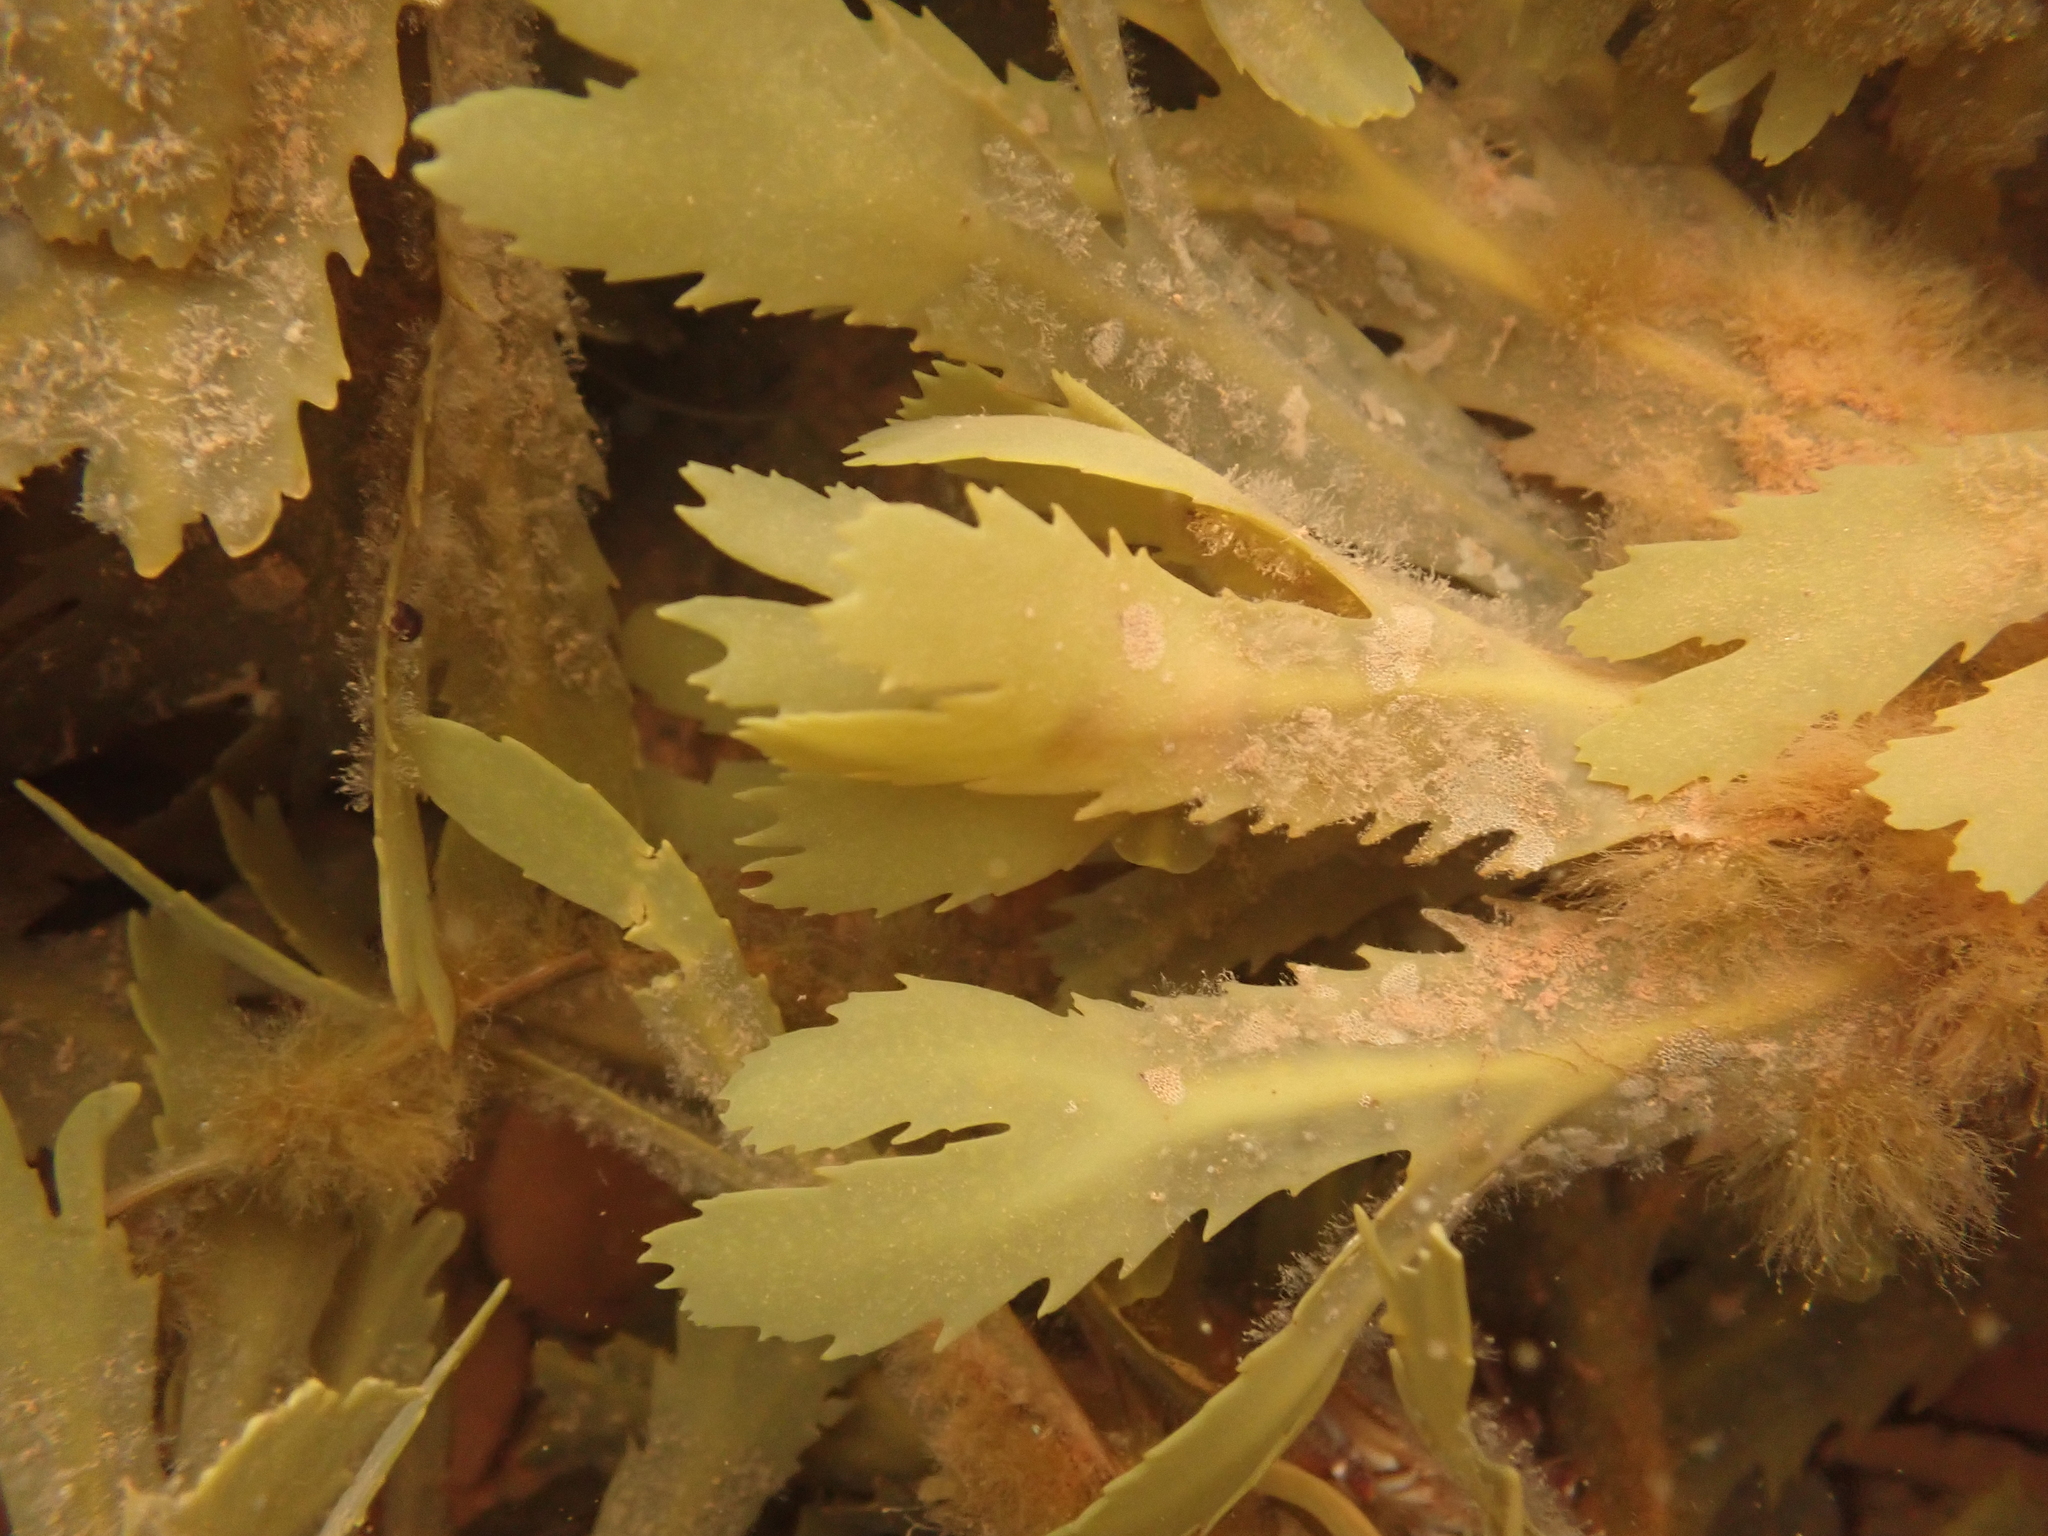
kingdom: Chromista
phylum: Ochrophyta
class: Phaeophyceae
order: Fucales
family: Fucaceae
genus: Fucus
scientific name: Fucus serratus
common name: Toothed wrack
